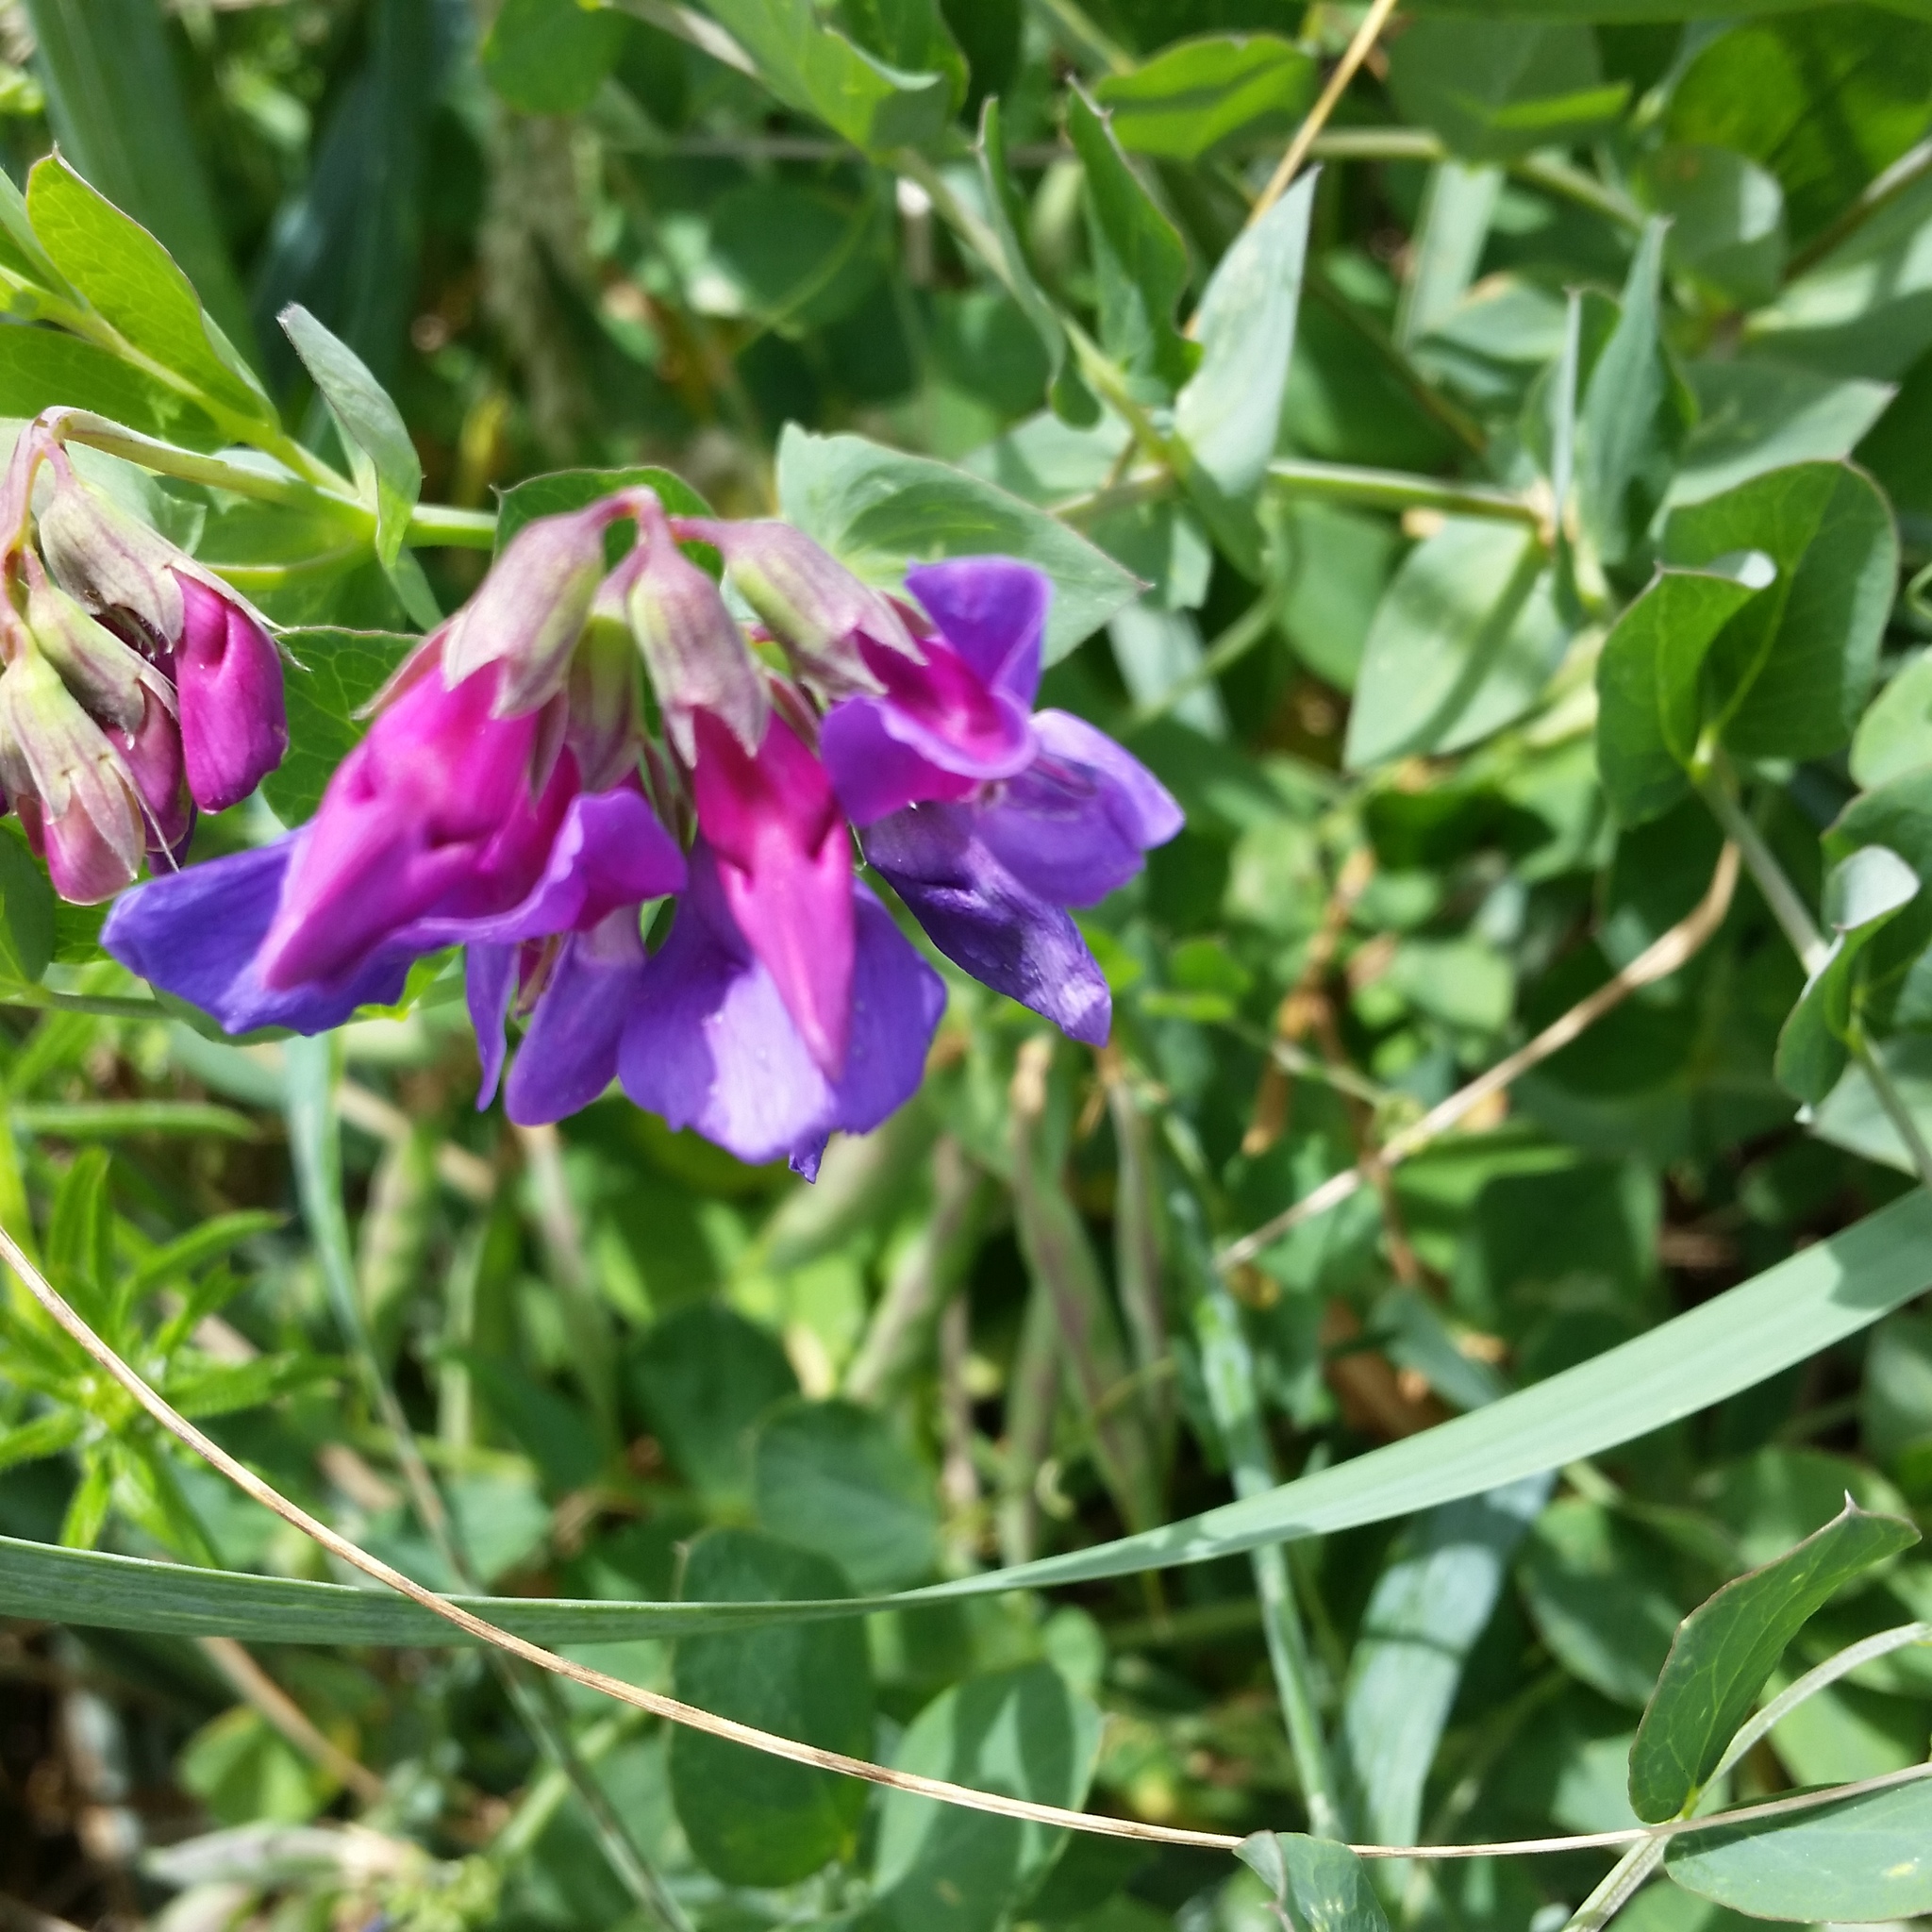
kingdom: Plantae
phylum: Tracheophyta
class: Magnoliopsida
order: Fabales
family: Fabaceae
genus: Lathyrus
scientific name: Lathyrus japonicus
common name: Sea pea
